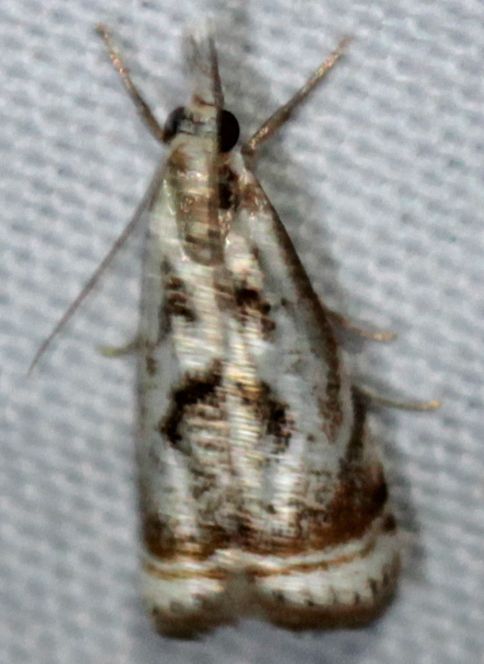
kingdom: Animalia
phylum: Arthropoda
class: Insecta
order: Lepidoptera
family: Crambidae
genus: Microcrambus
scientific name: Microcrambus elegans
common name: Elegant grass-veneer
